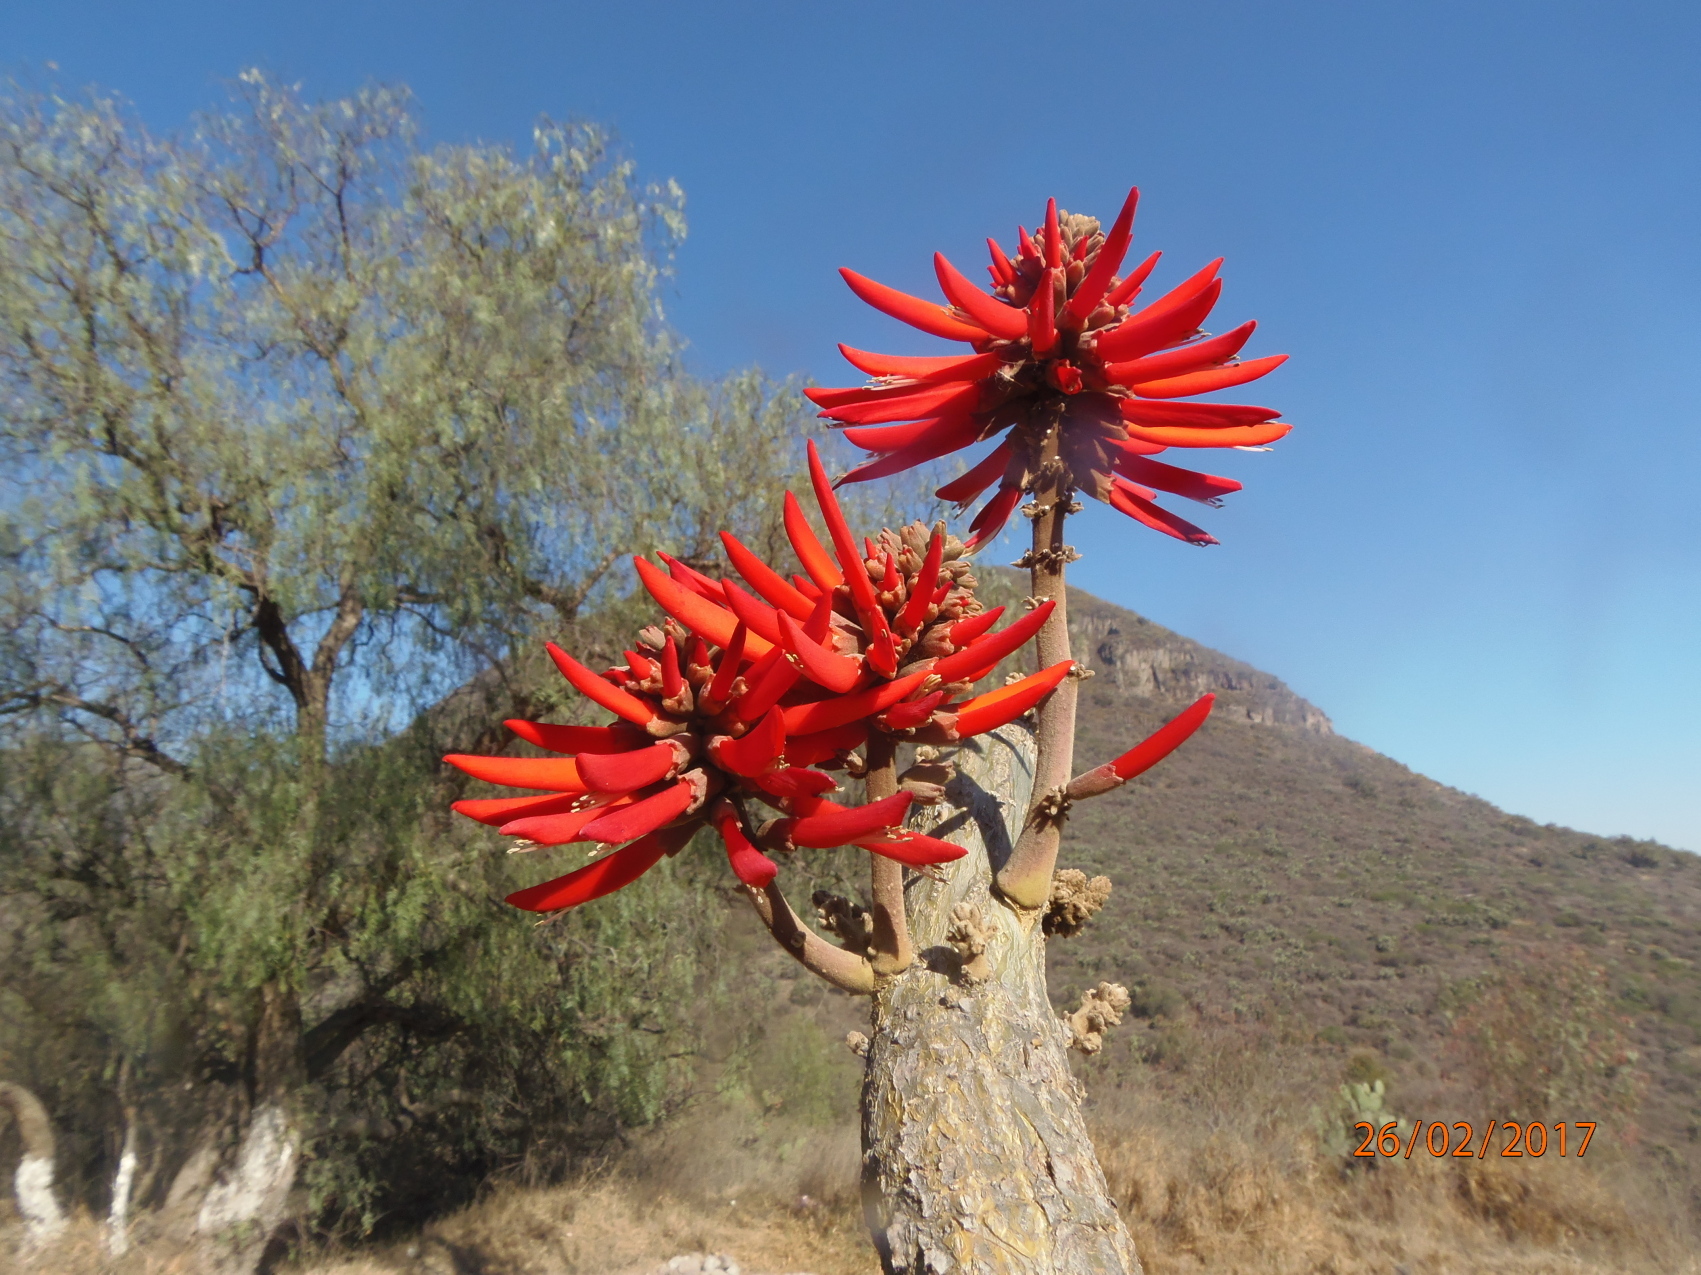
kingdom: Plantae
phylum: Tracheophyta
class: Magnoliopsida
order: Fabales
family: Fabaceae
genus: Erythrina
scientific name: Erythrina folkersii
